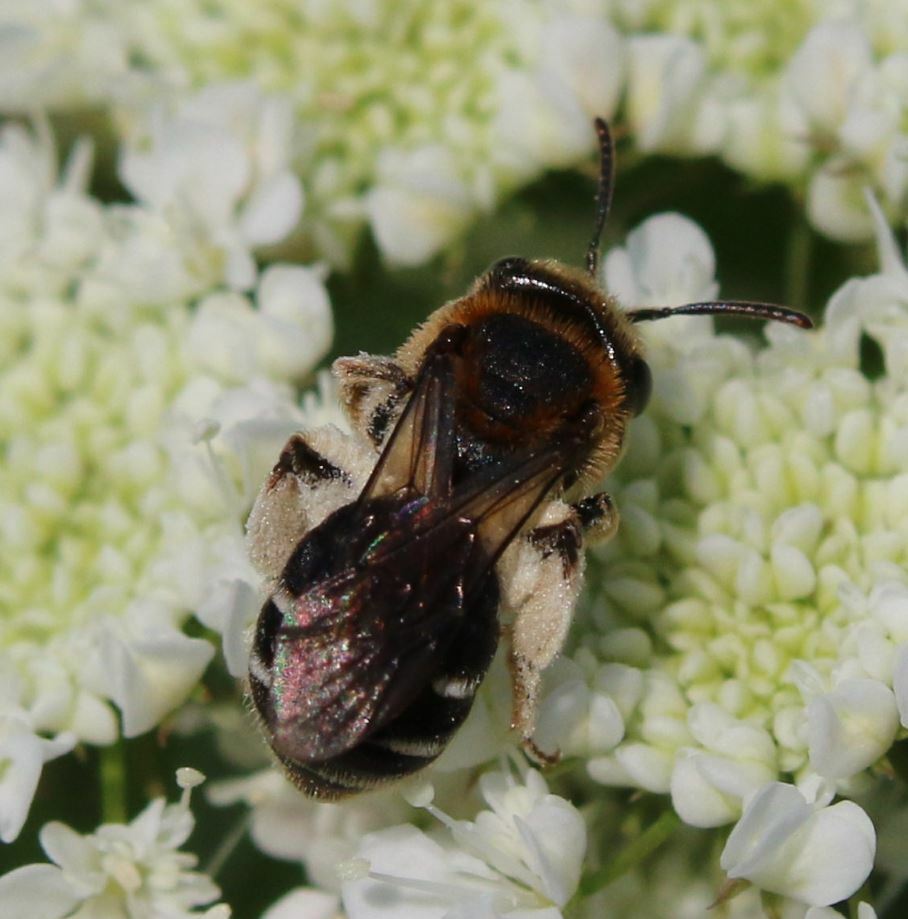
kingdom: Animalia
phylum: Arthropoda
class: Insecta
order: Hymenoptera
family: Andrenidae
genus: Andrena
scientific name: Andrena colletiformis
